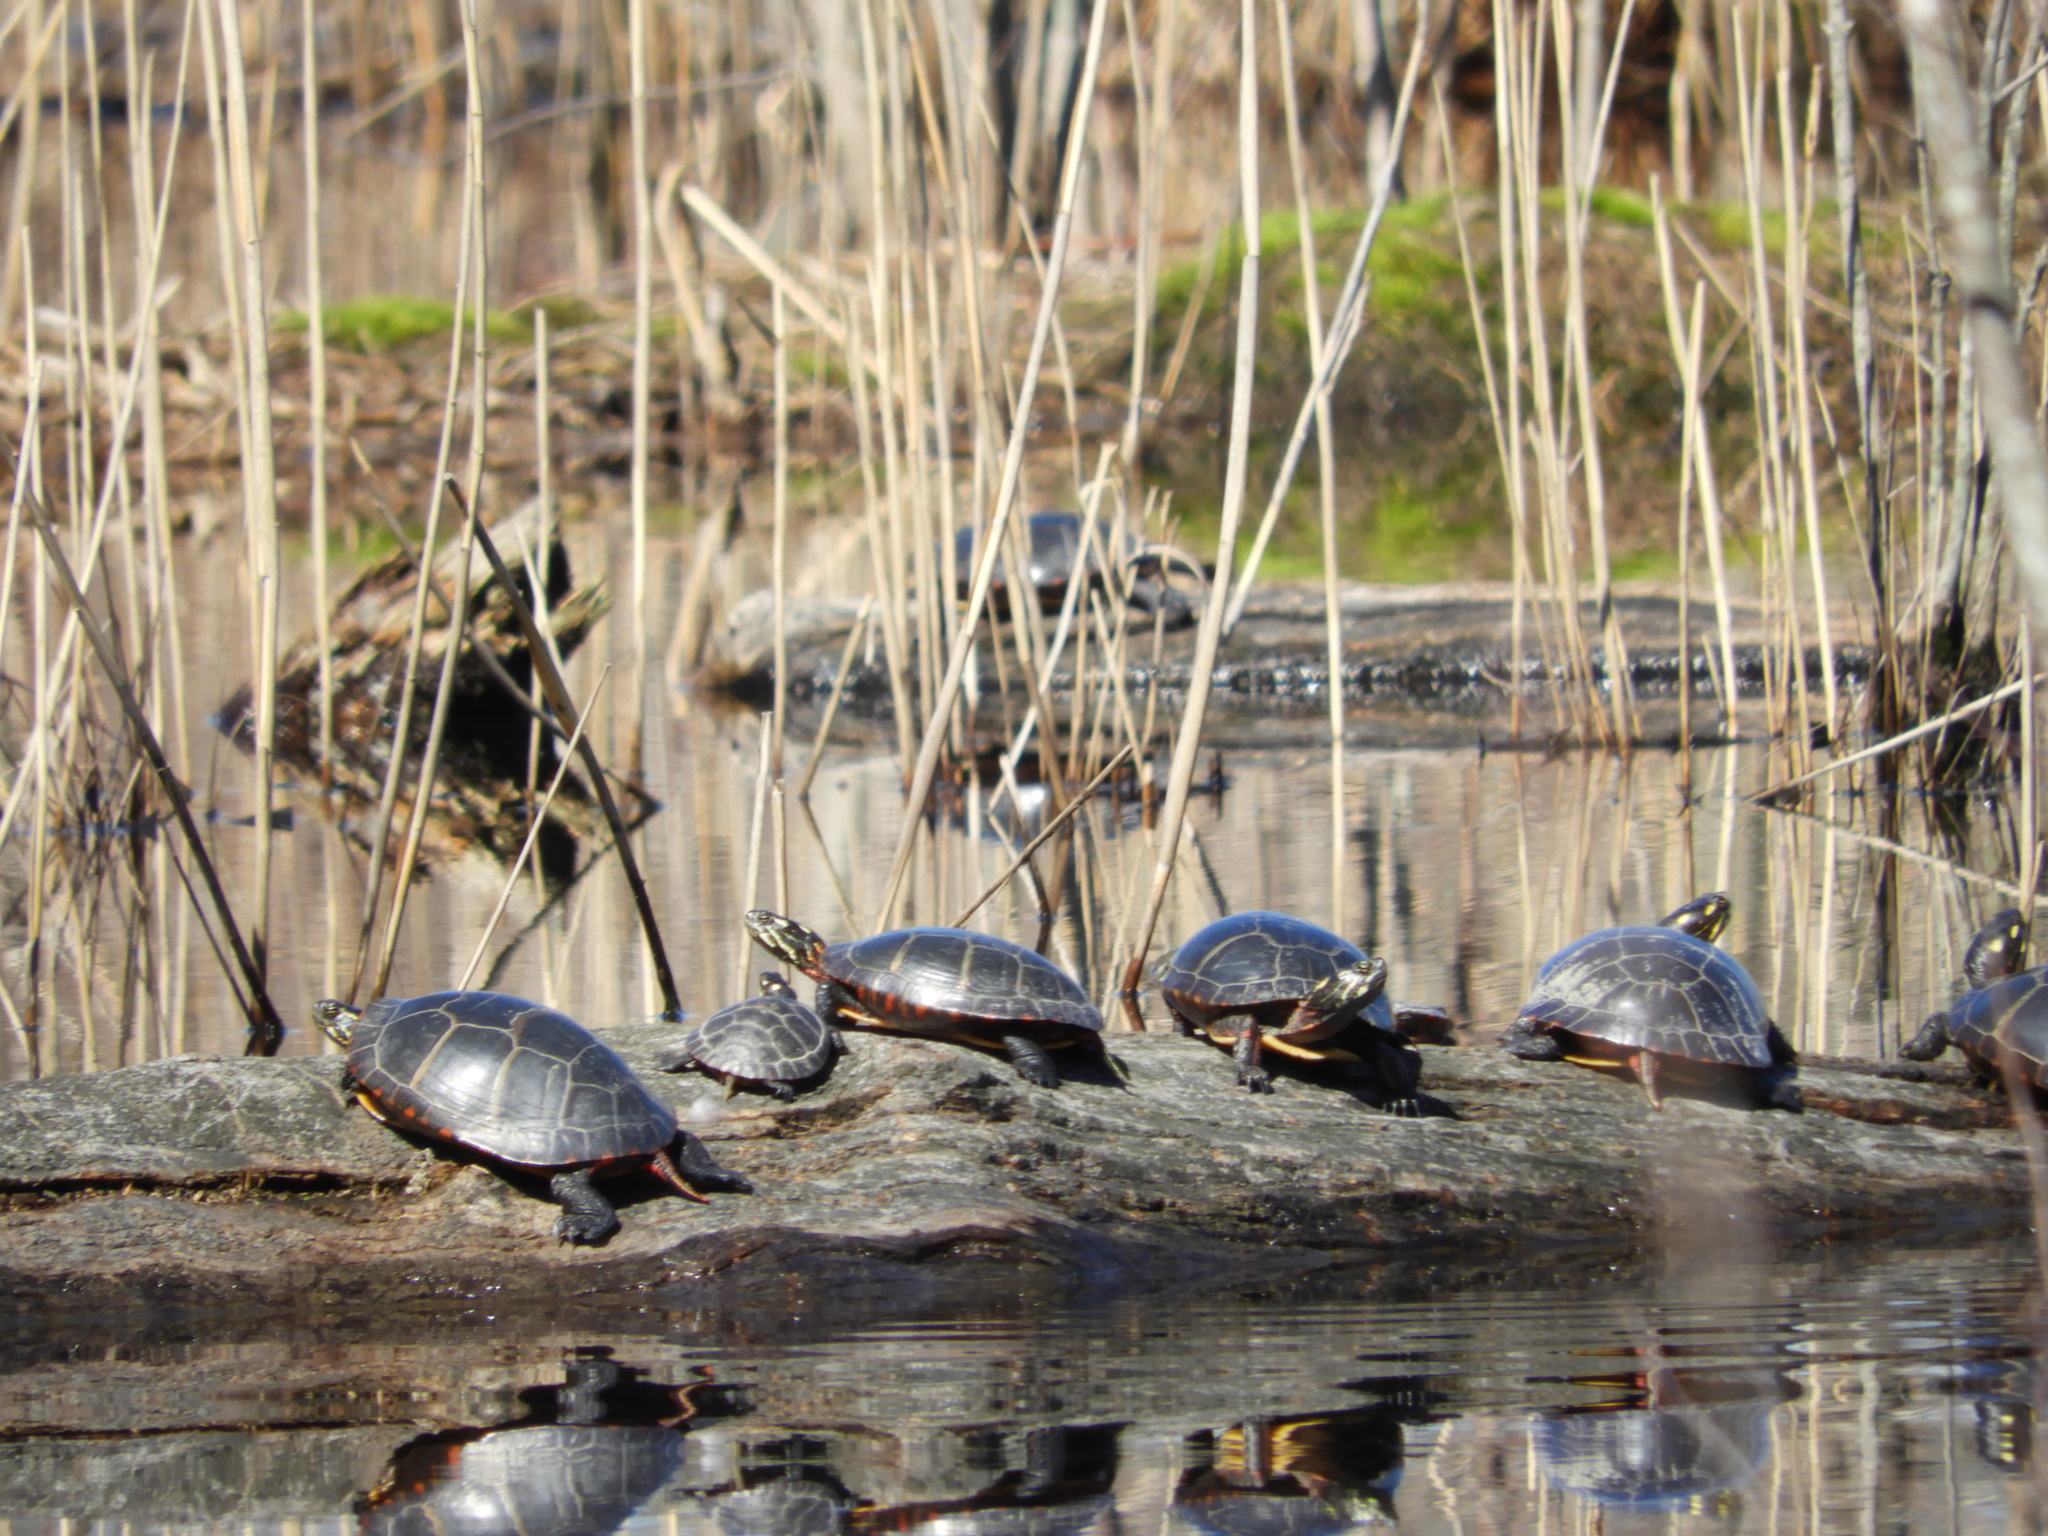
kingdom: Animalia
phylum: Chordata
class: Testudines
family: Emydidae
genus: Chrysemys
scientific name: Chrysemys picta
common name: Painted turtle
